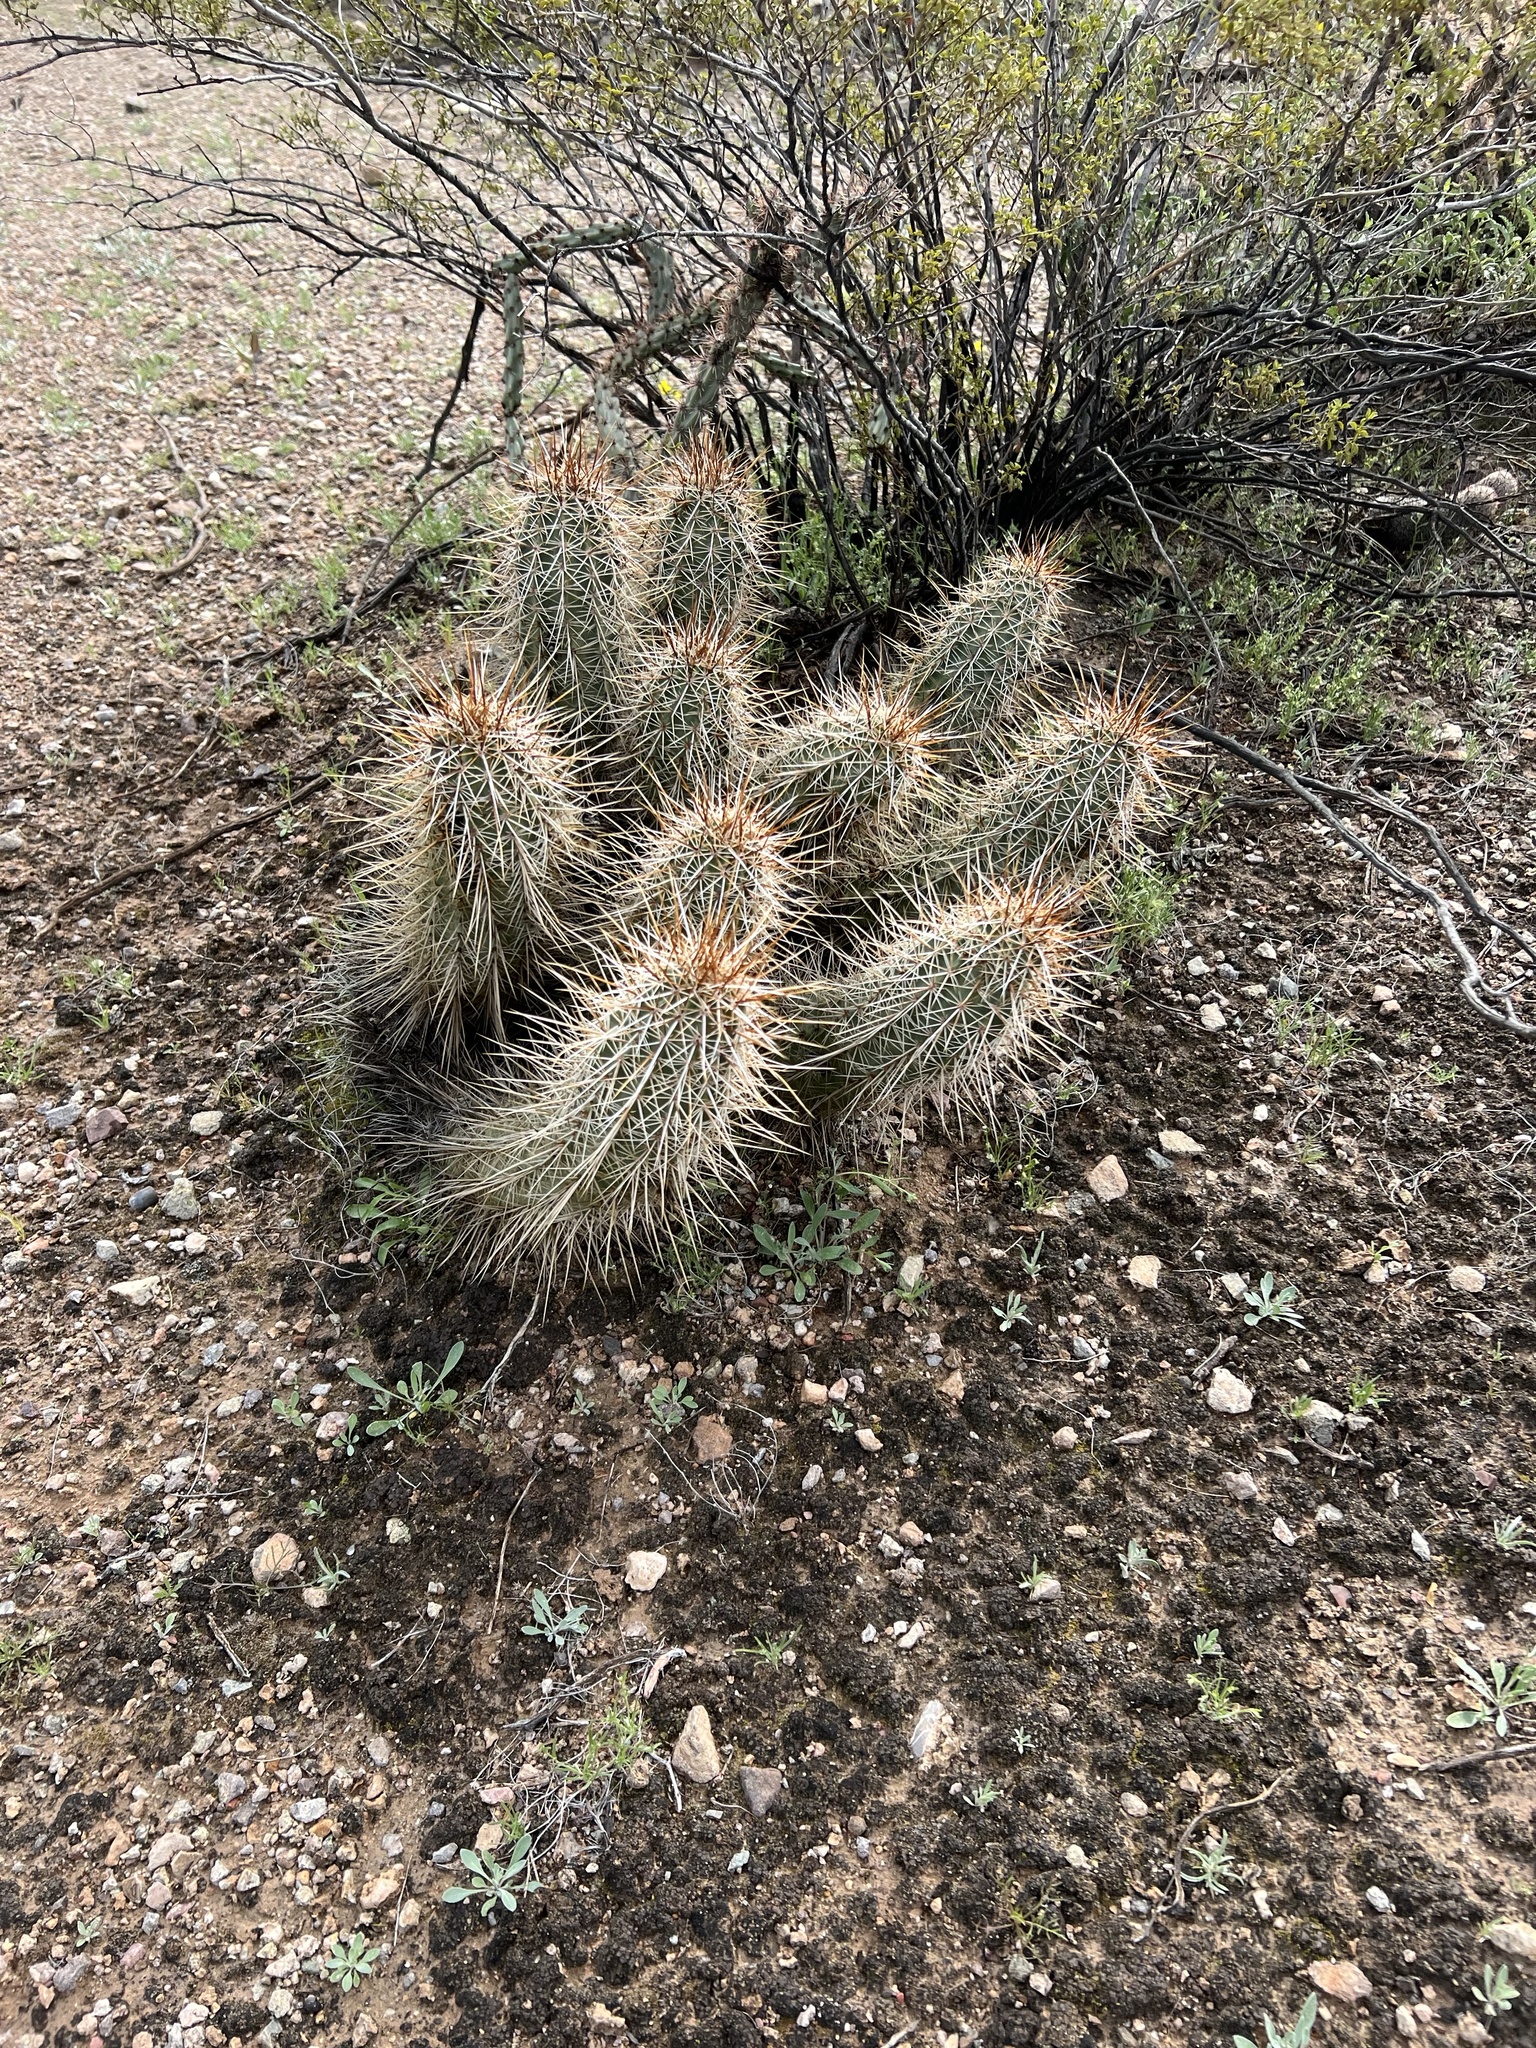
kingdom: Plantae
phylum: Tracheophyta
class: Magnoliopsida
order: Caryophyllales
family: Cactaceae
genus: Echinocereus
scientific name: Echinocereus fasciculatus
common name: Bundle hedgehog
